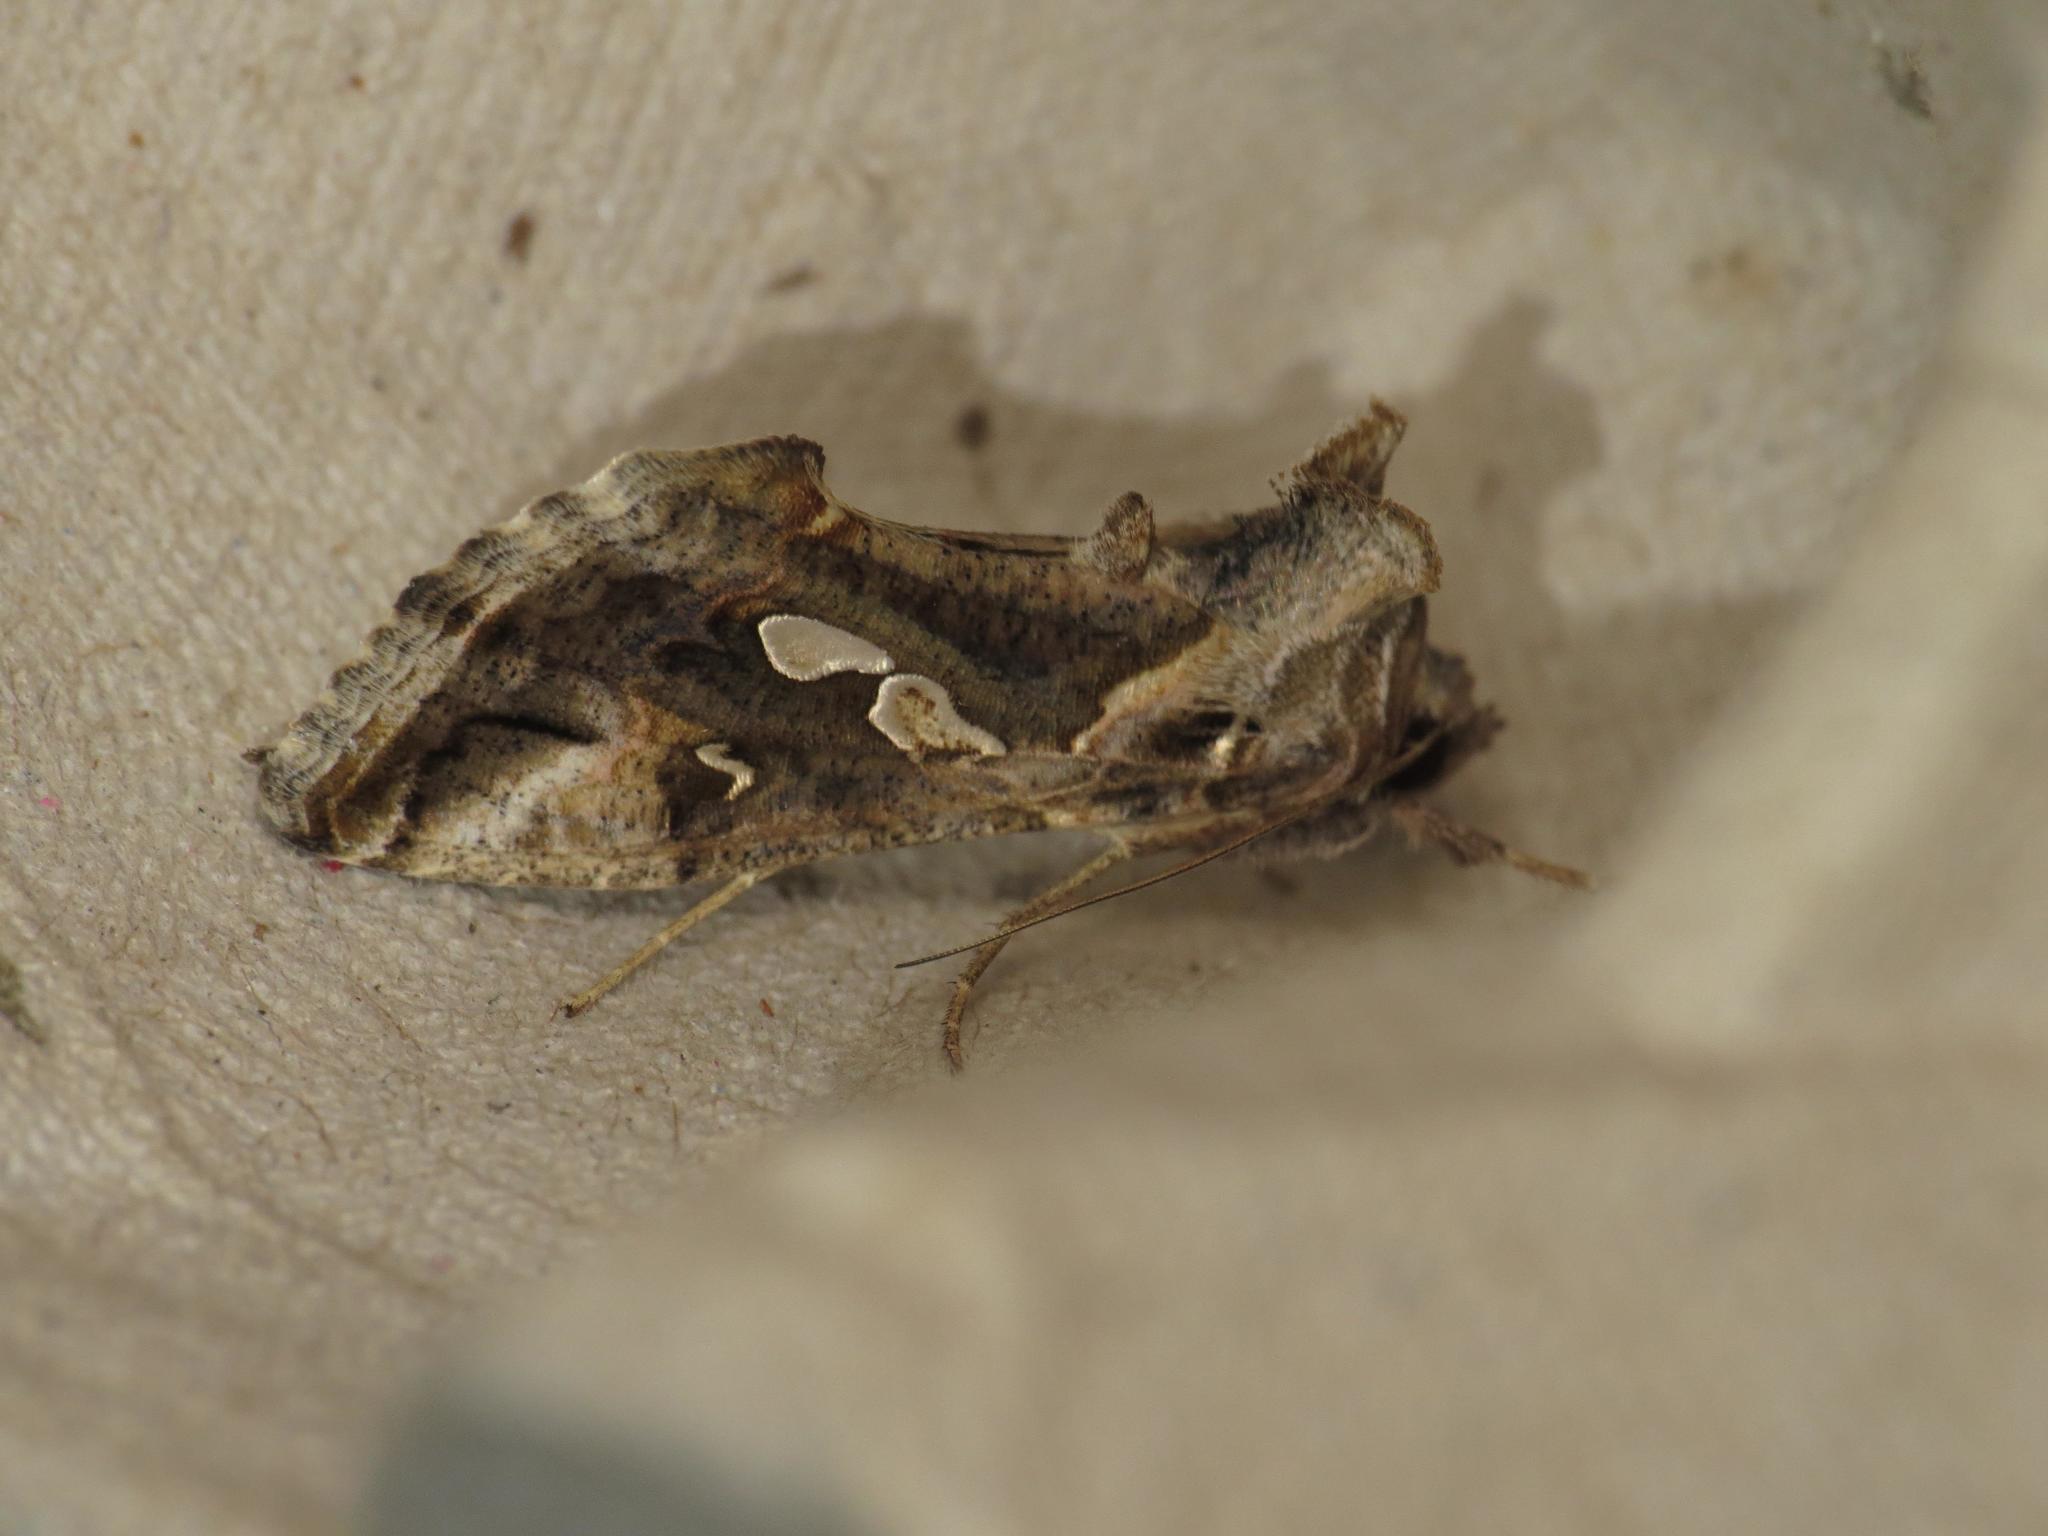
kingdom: Animalia
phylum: Arthropoda
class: Insecta
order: Lepidoptera
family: Noctuidae
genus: Chrysodeixis
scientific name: Chrysodeixis argentifera
